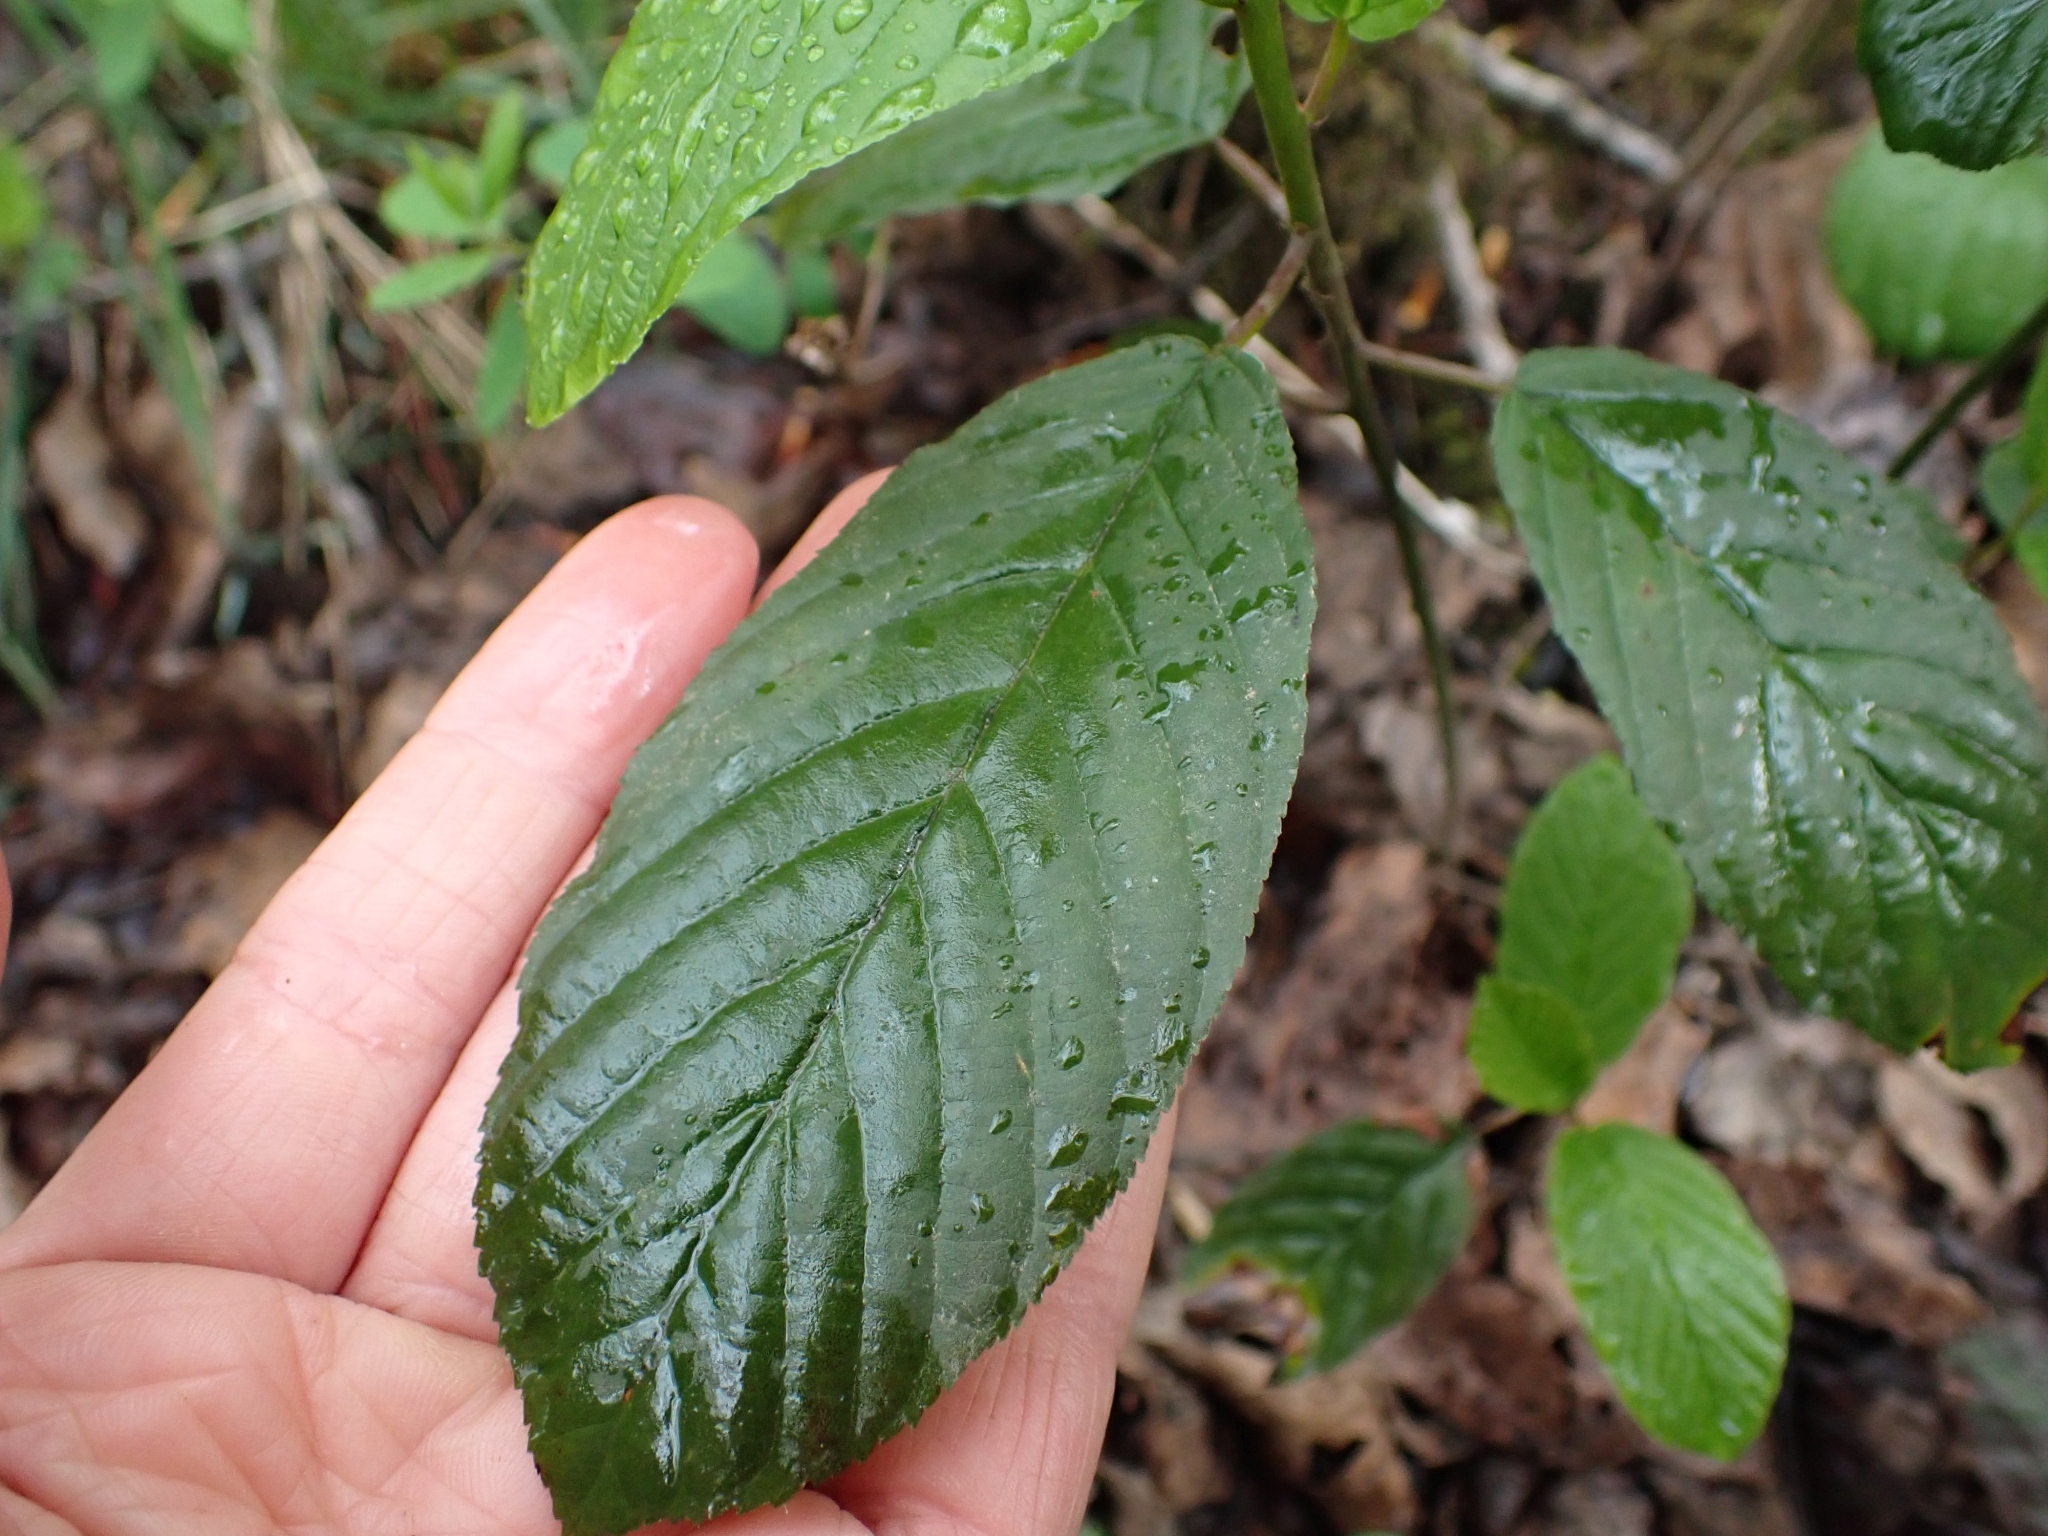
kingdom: Plantae
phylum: Tracheophyta
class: Magnoliopsida
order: Rosales
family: Rhamnaceae
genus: Frangula
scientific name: Frangula purshiana
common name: Cascara buckthorn
